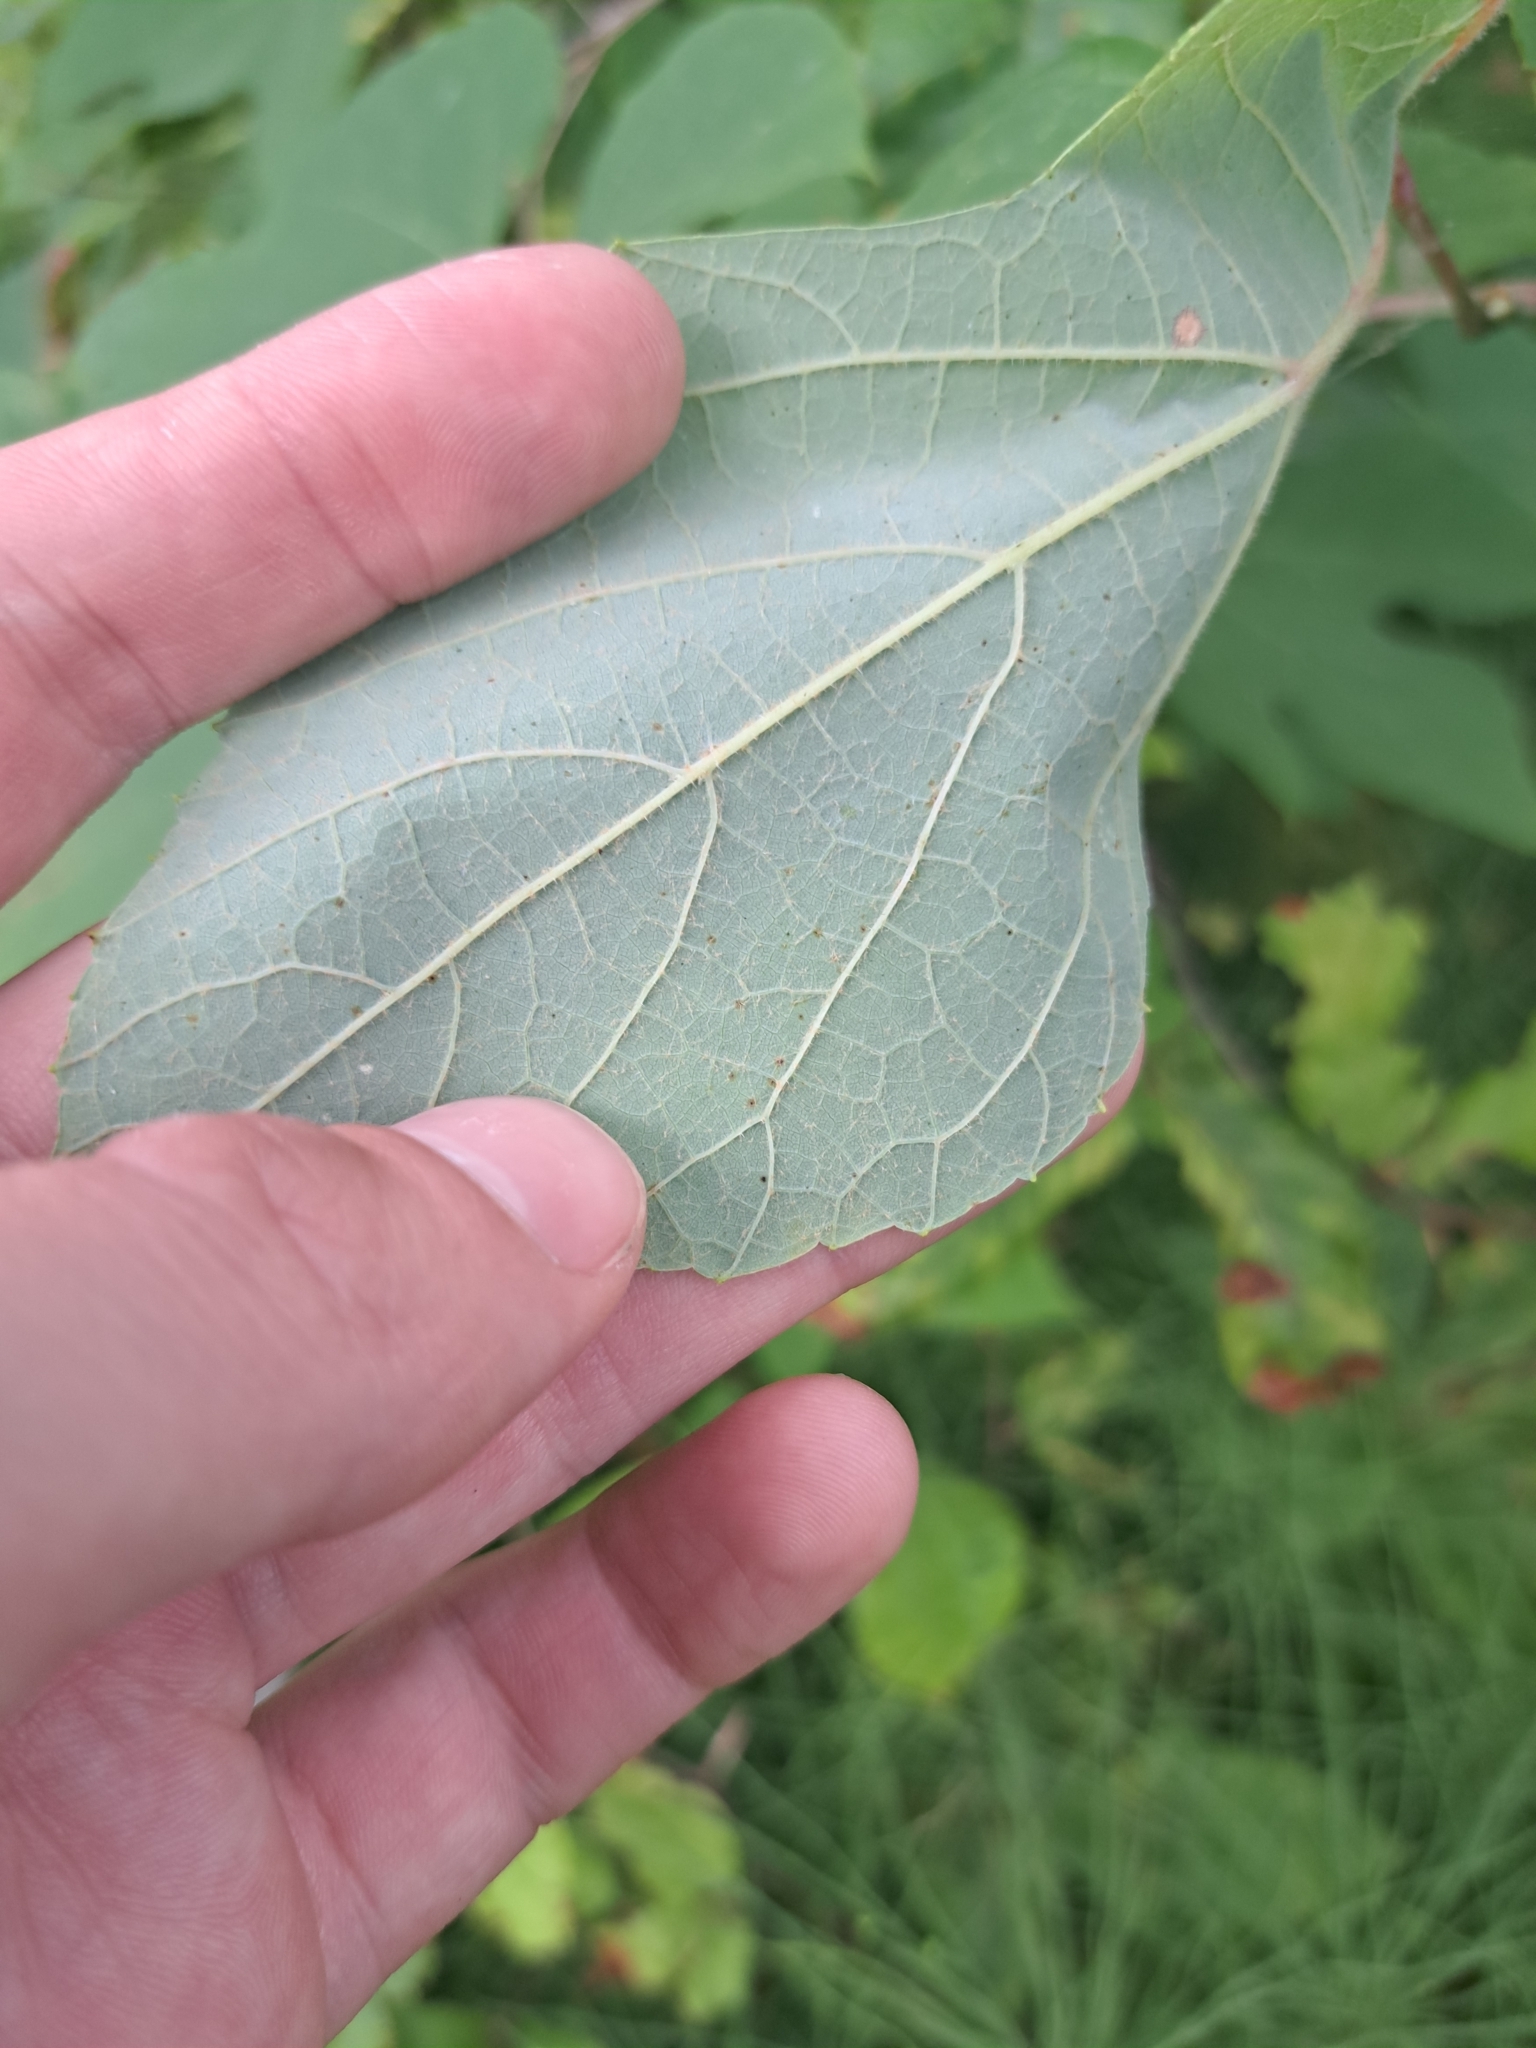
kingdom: Plantae
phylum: Tracheophyta
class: Magnoliopsida
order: Vitales
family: Vitaceae
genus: Vitis
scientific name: Vitis aestivalis
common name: Pigeon grape
